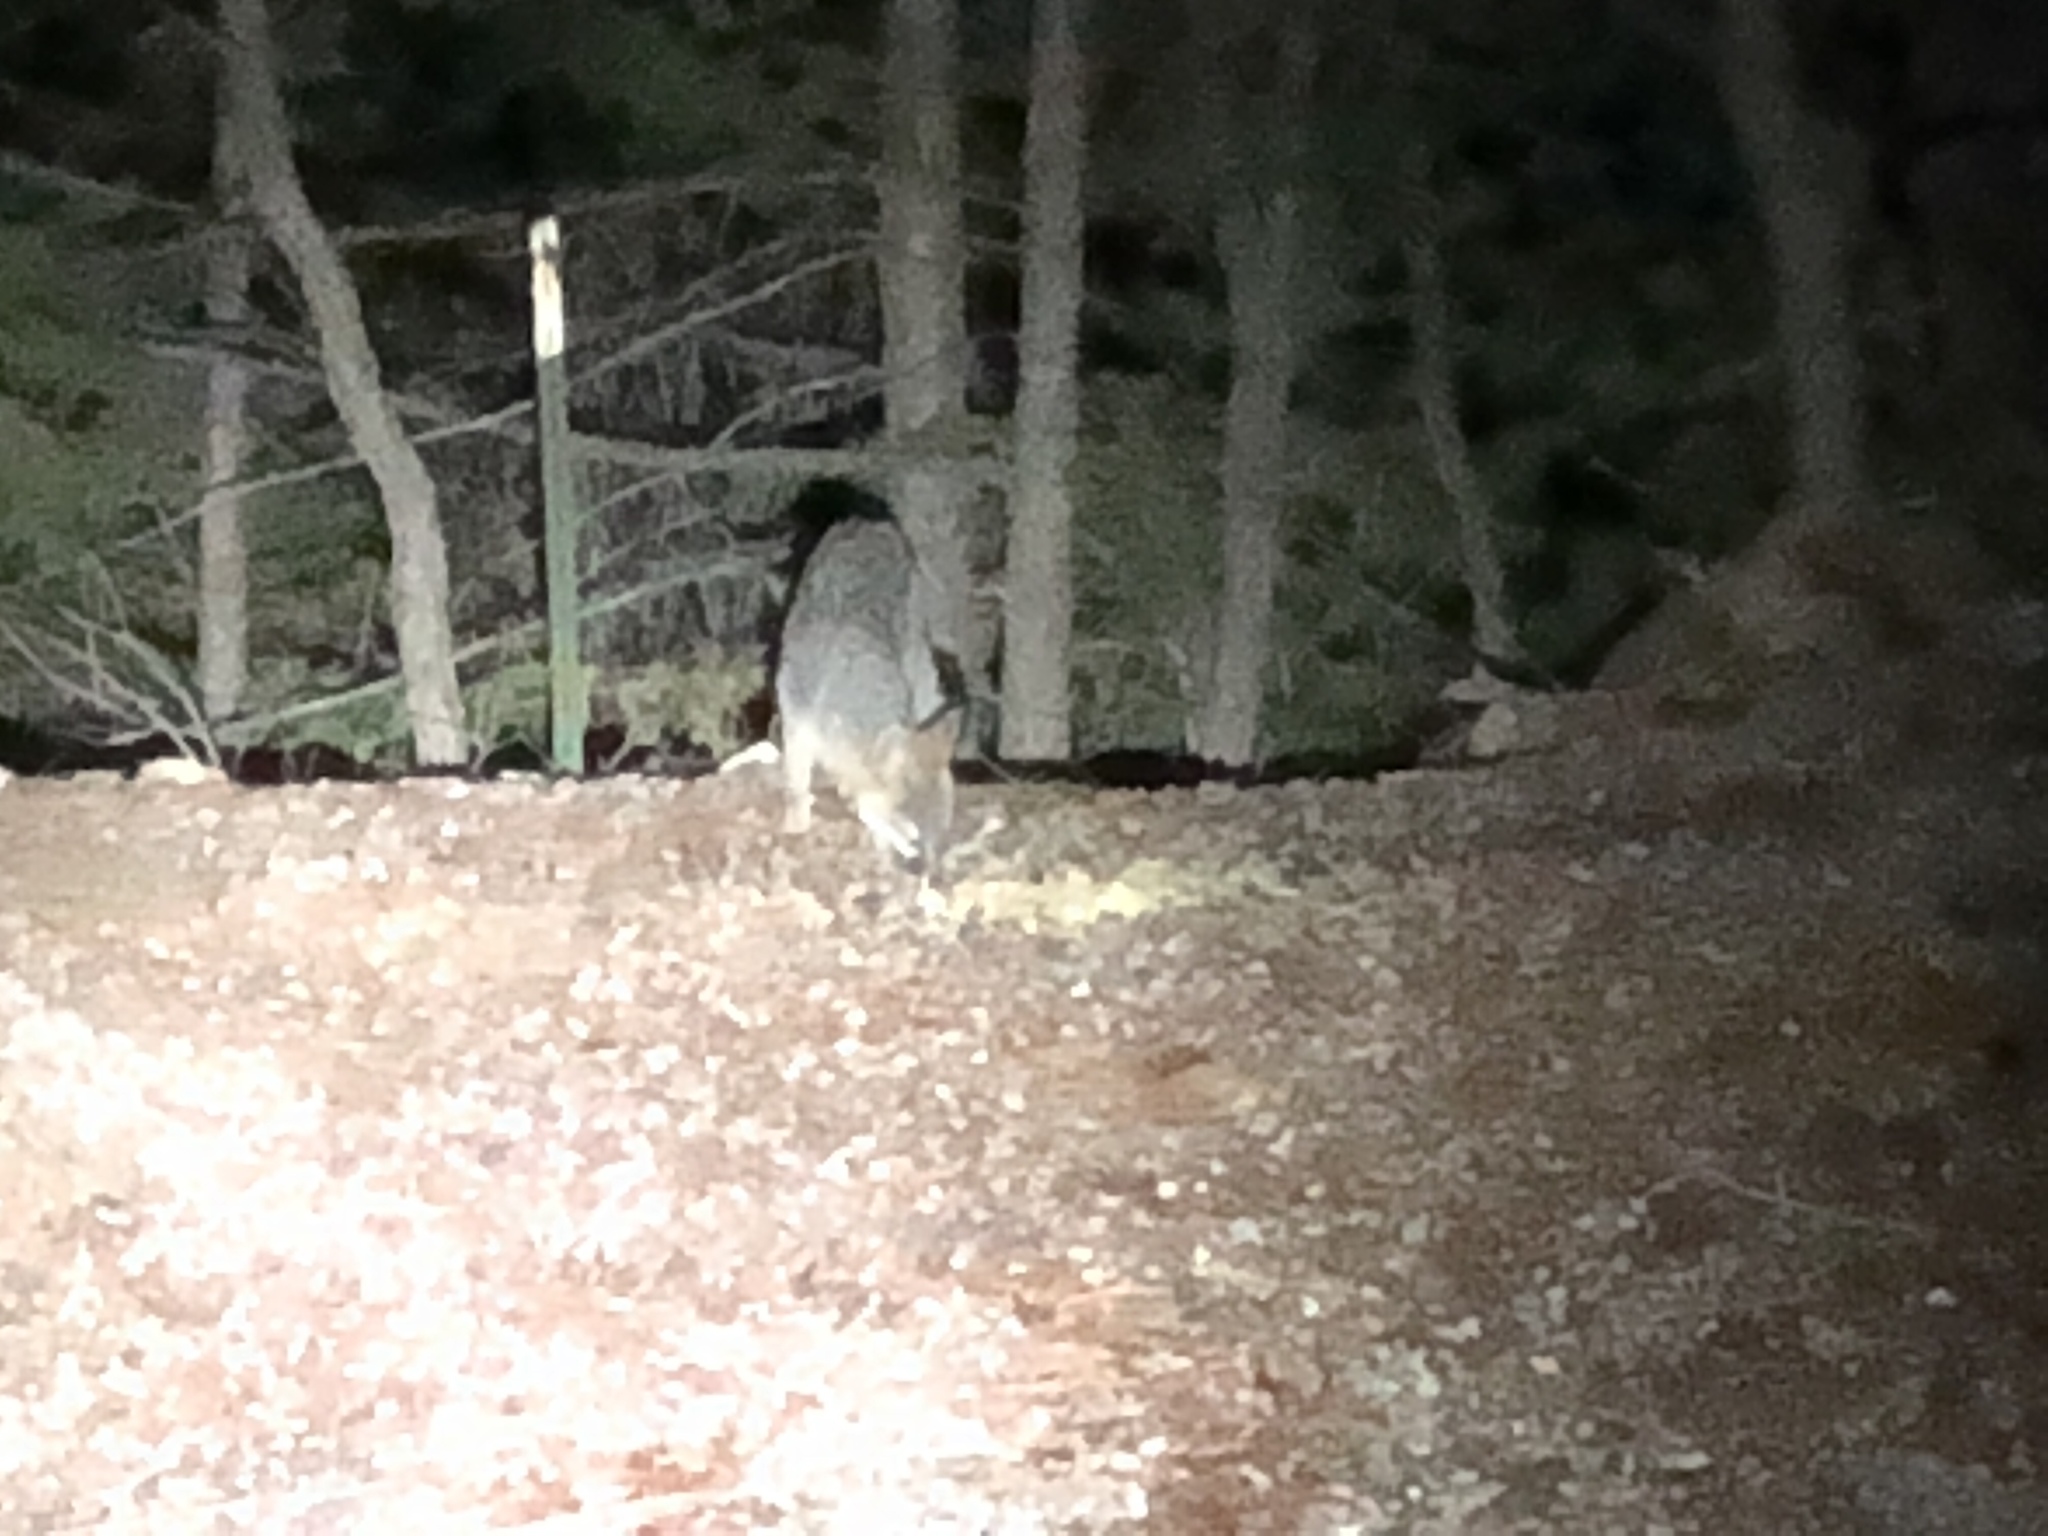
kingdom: Animalia
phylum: Chordata
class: Mammalia
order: Carnivora
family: Canidae
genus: Urocyon
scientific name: Urocyon cinereoargenteus
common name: Gray fox
